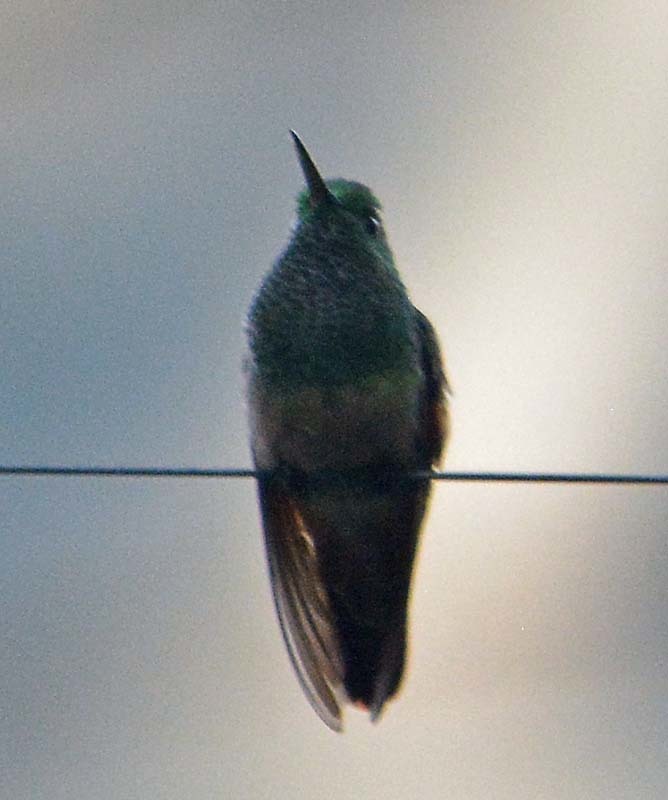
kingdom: Animalia
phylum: Chordata
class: Aves
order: Apodiformes
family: Trochilidae
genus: Saucerottia
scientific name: Saucerottia beryllina
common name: Berylline hummingbird
